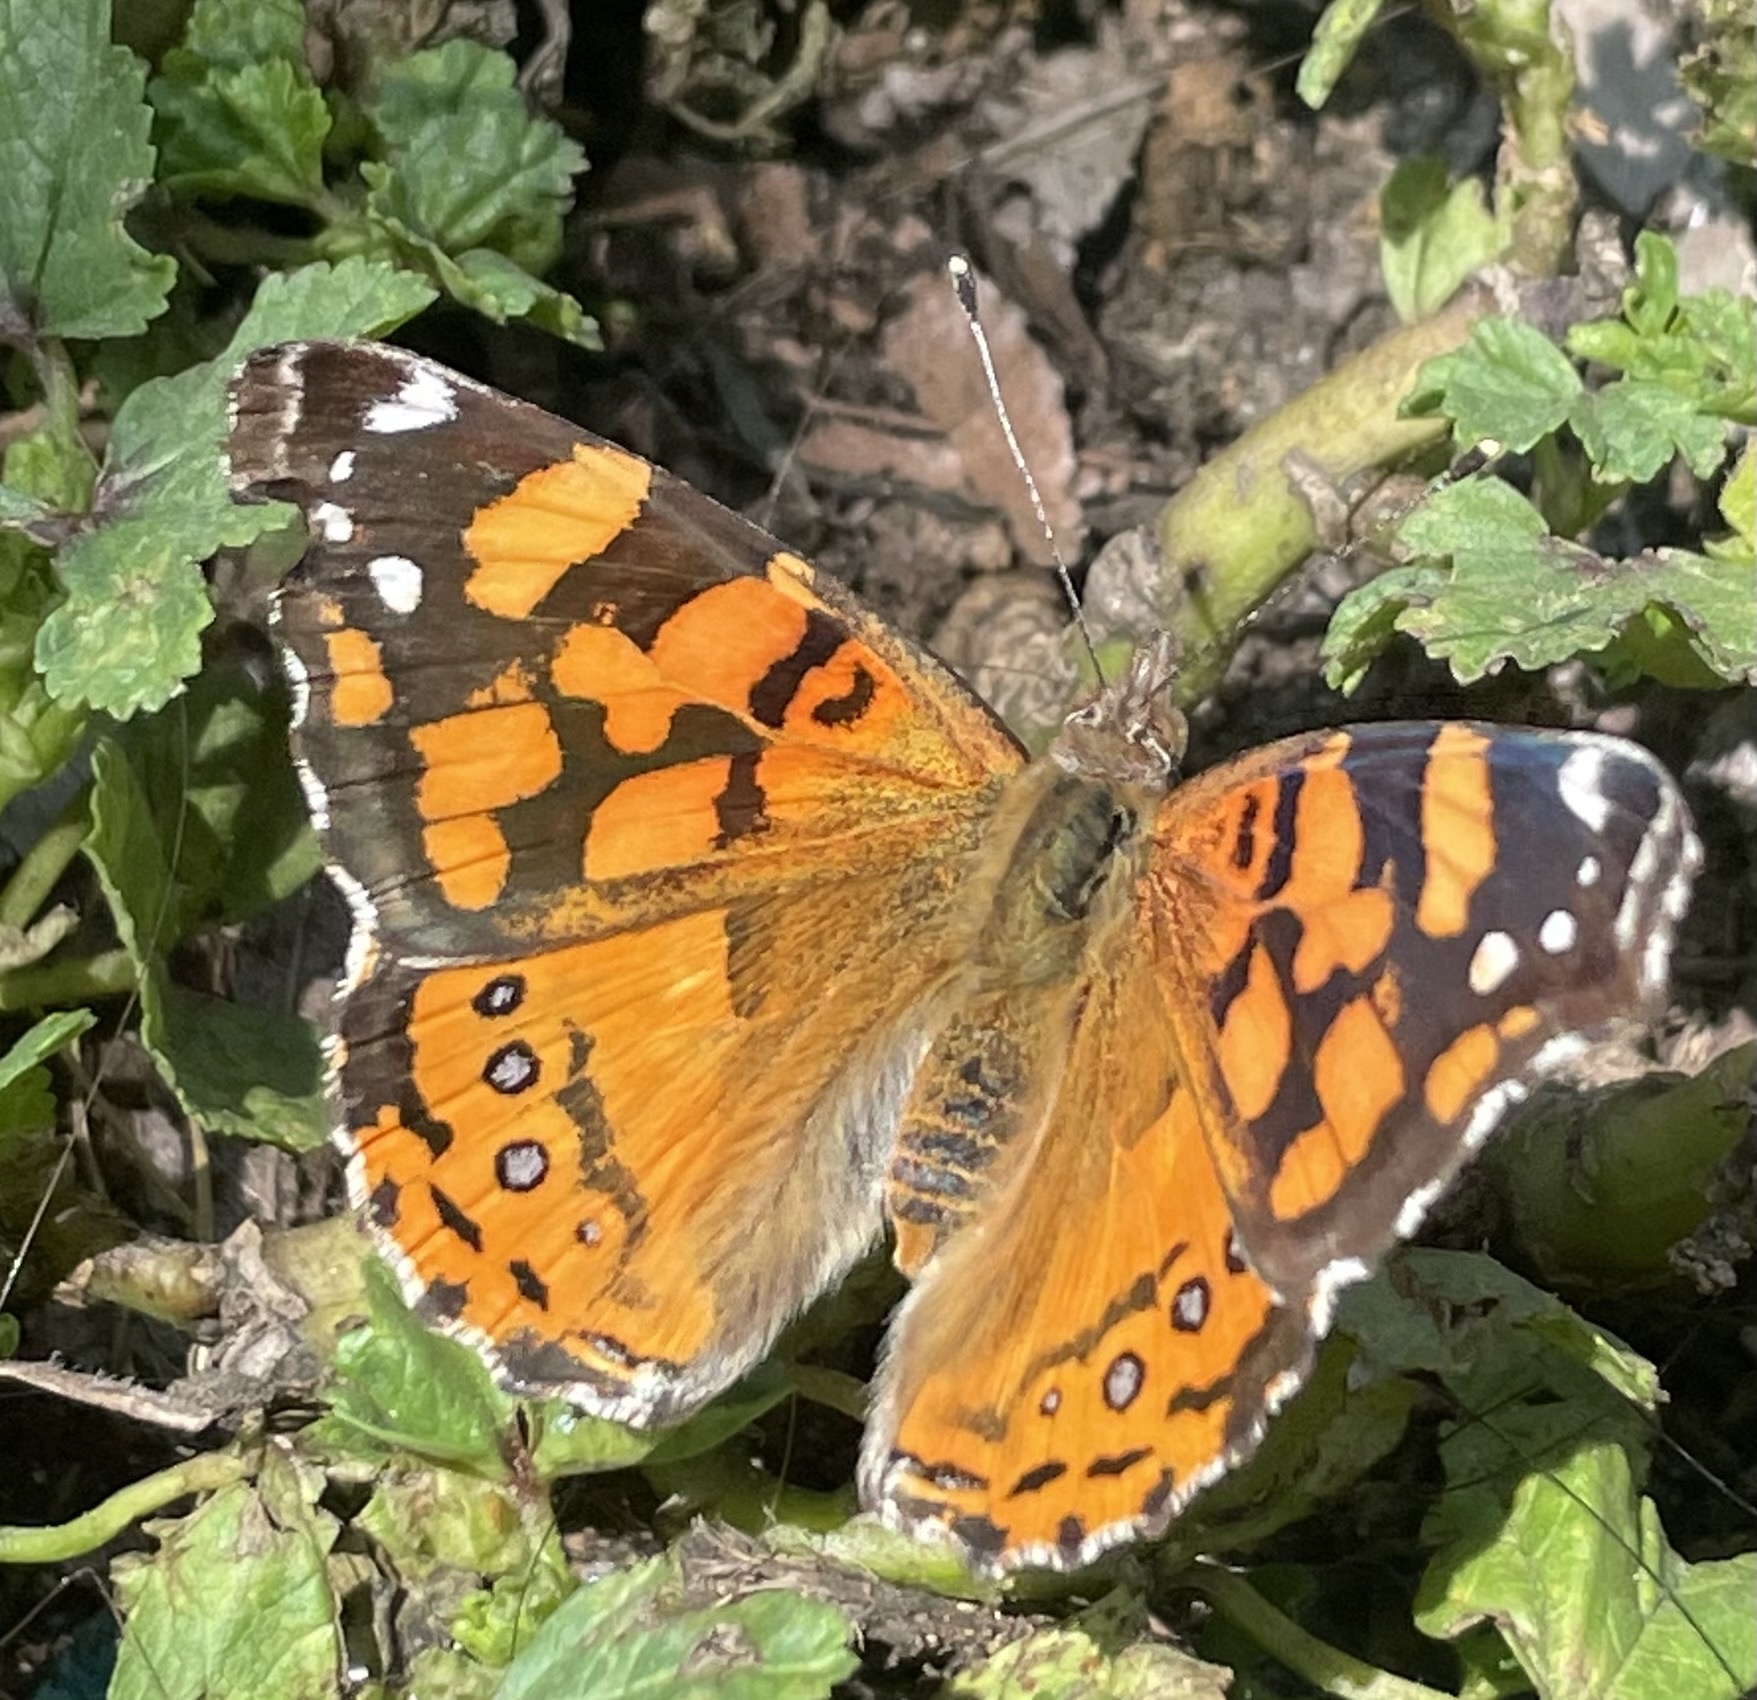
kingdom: Animalia
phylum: Arthropoda
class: Insecta
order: Lepidoptera
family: Nymphalidae
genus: Vanessa
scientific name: Vanessa annabella
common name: West coast lady
